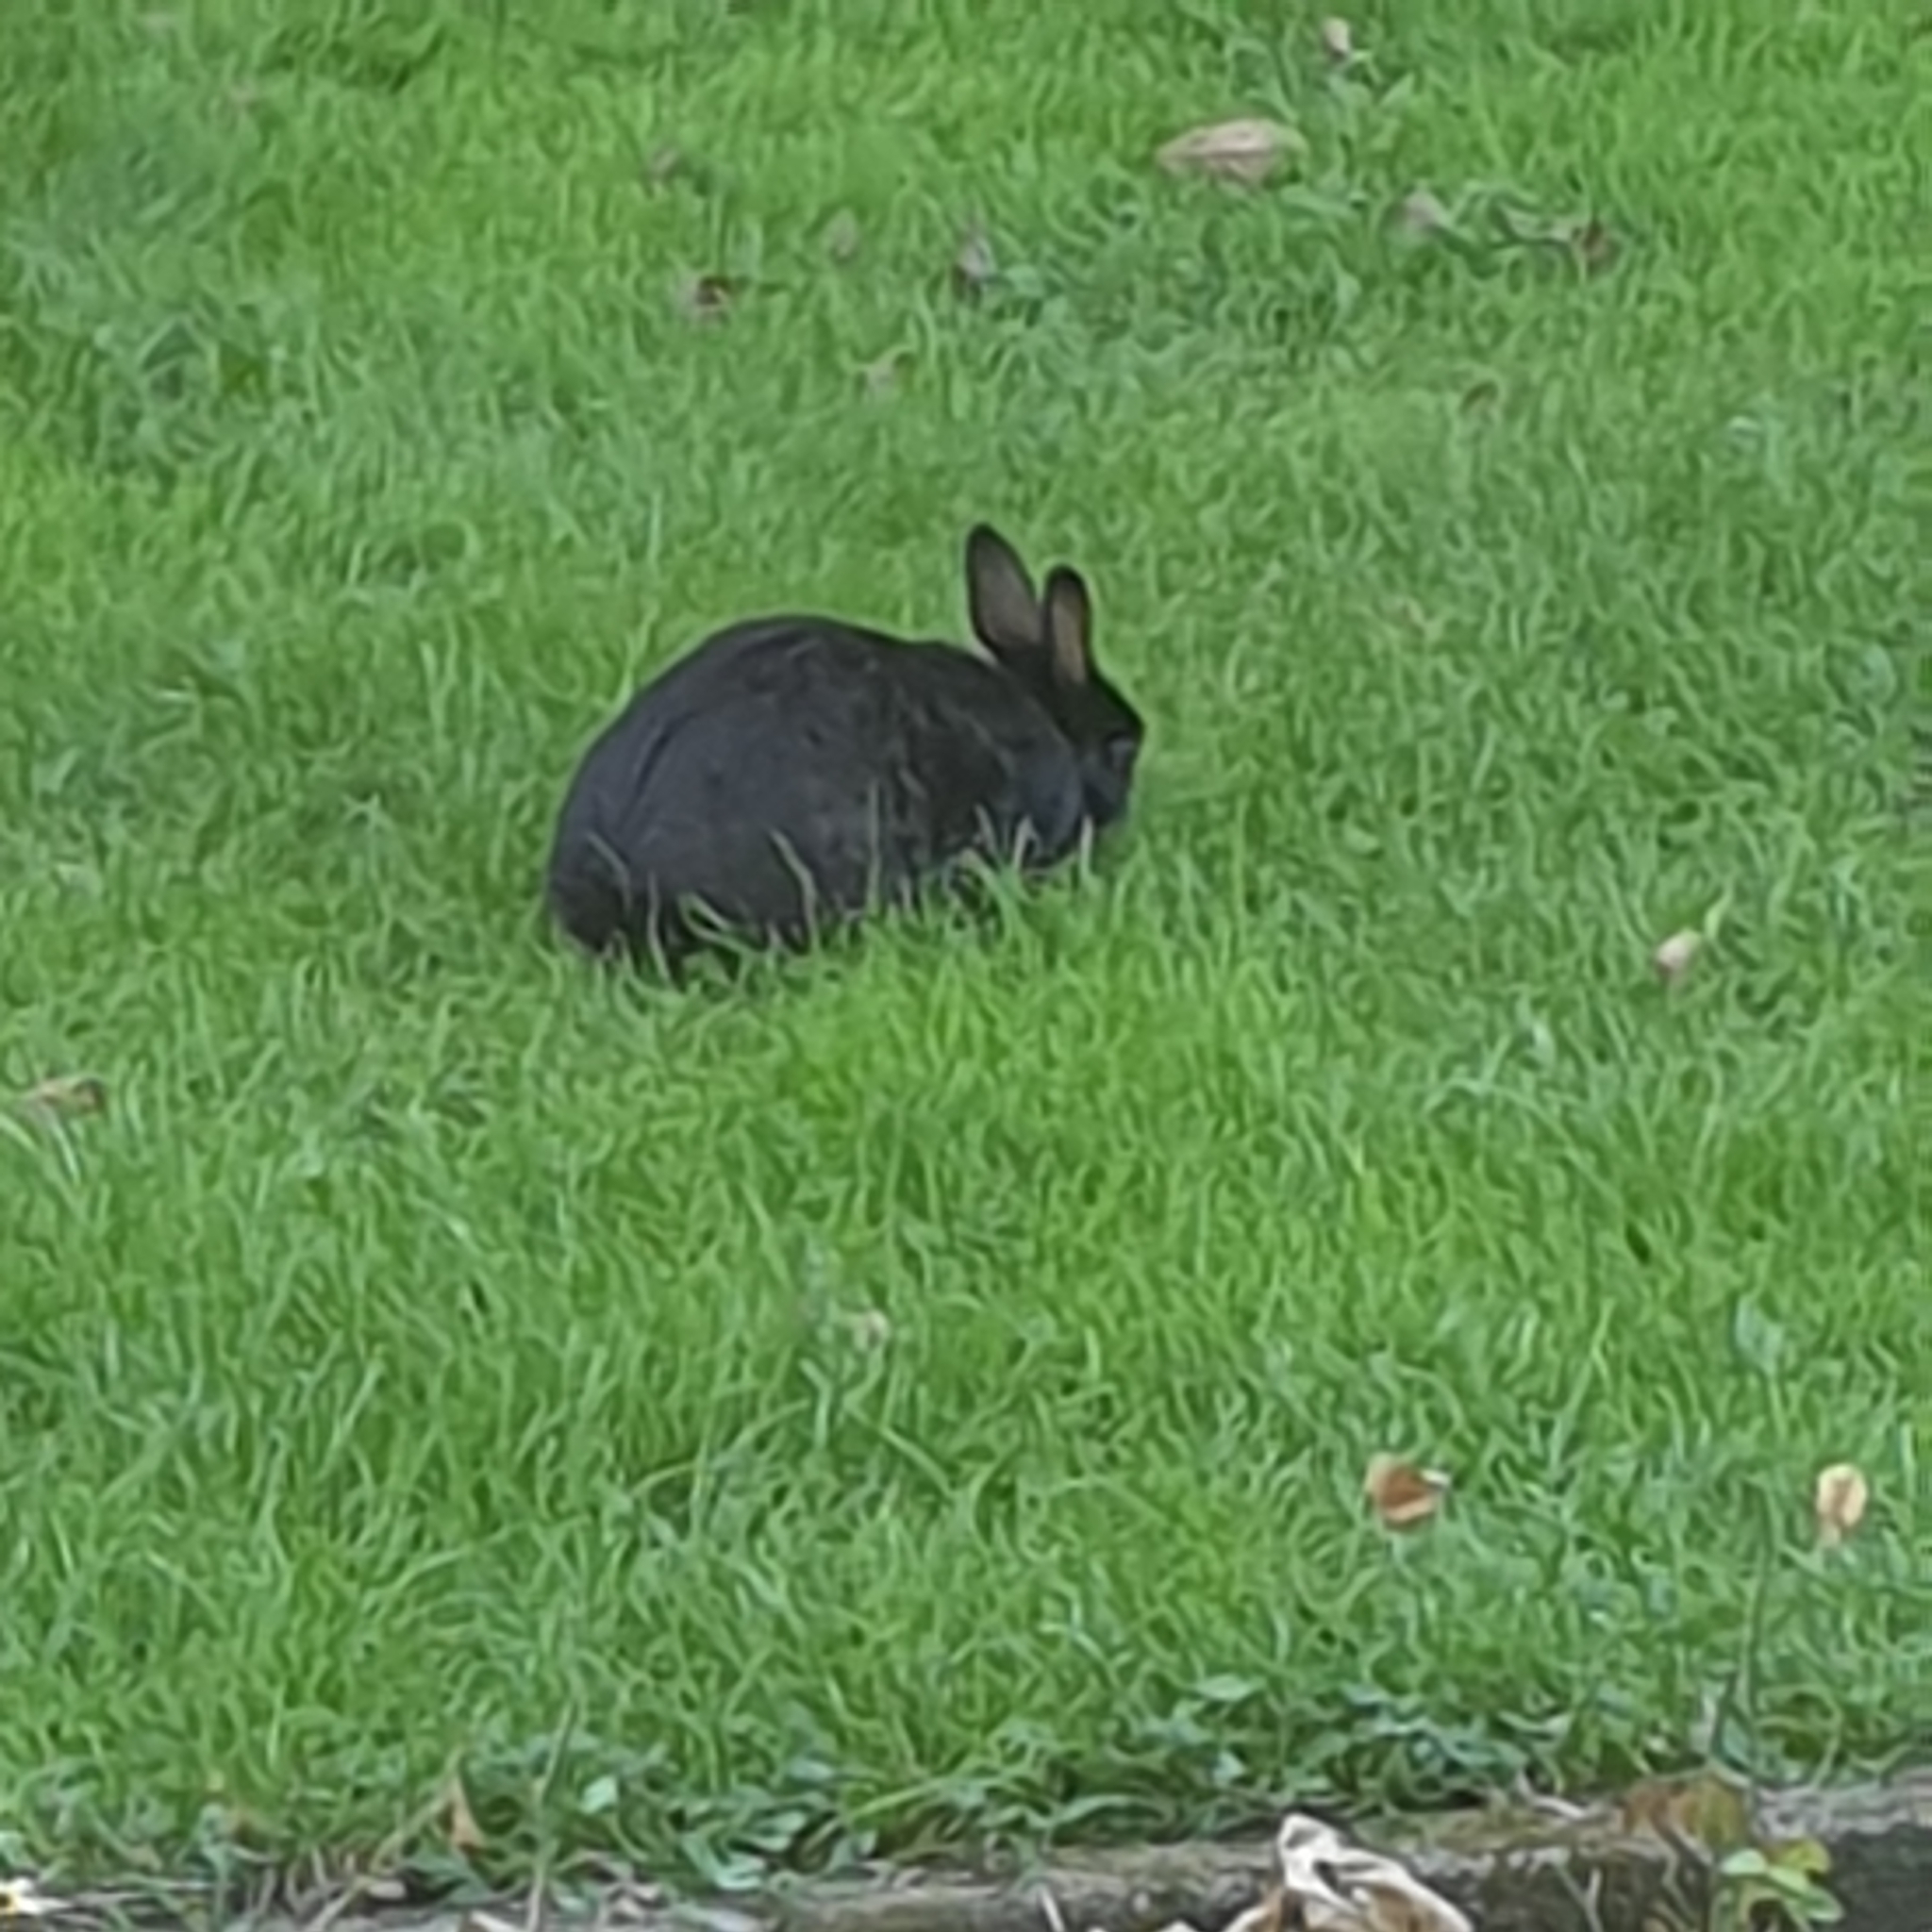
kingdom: Animalia
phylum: Chordata
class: Mammalia
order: Lagomorpha
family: Leporidae
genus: Oryctolagus
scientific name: Oryctolagus cuniculus
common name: European rabbit
